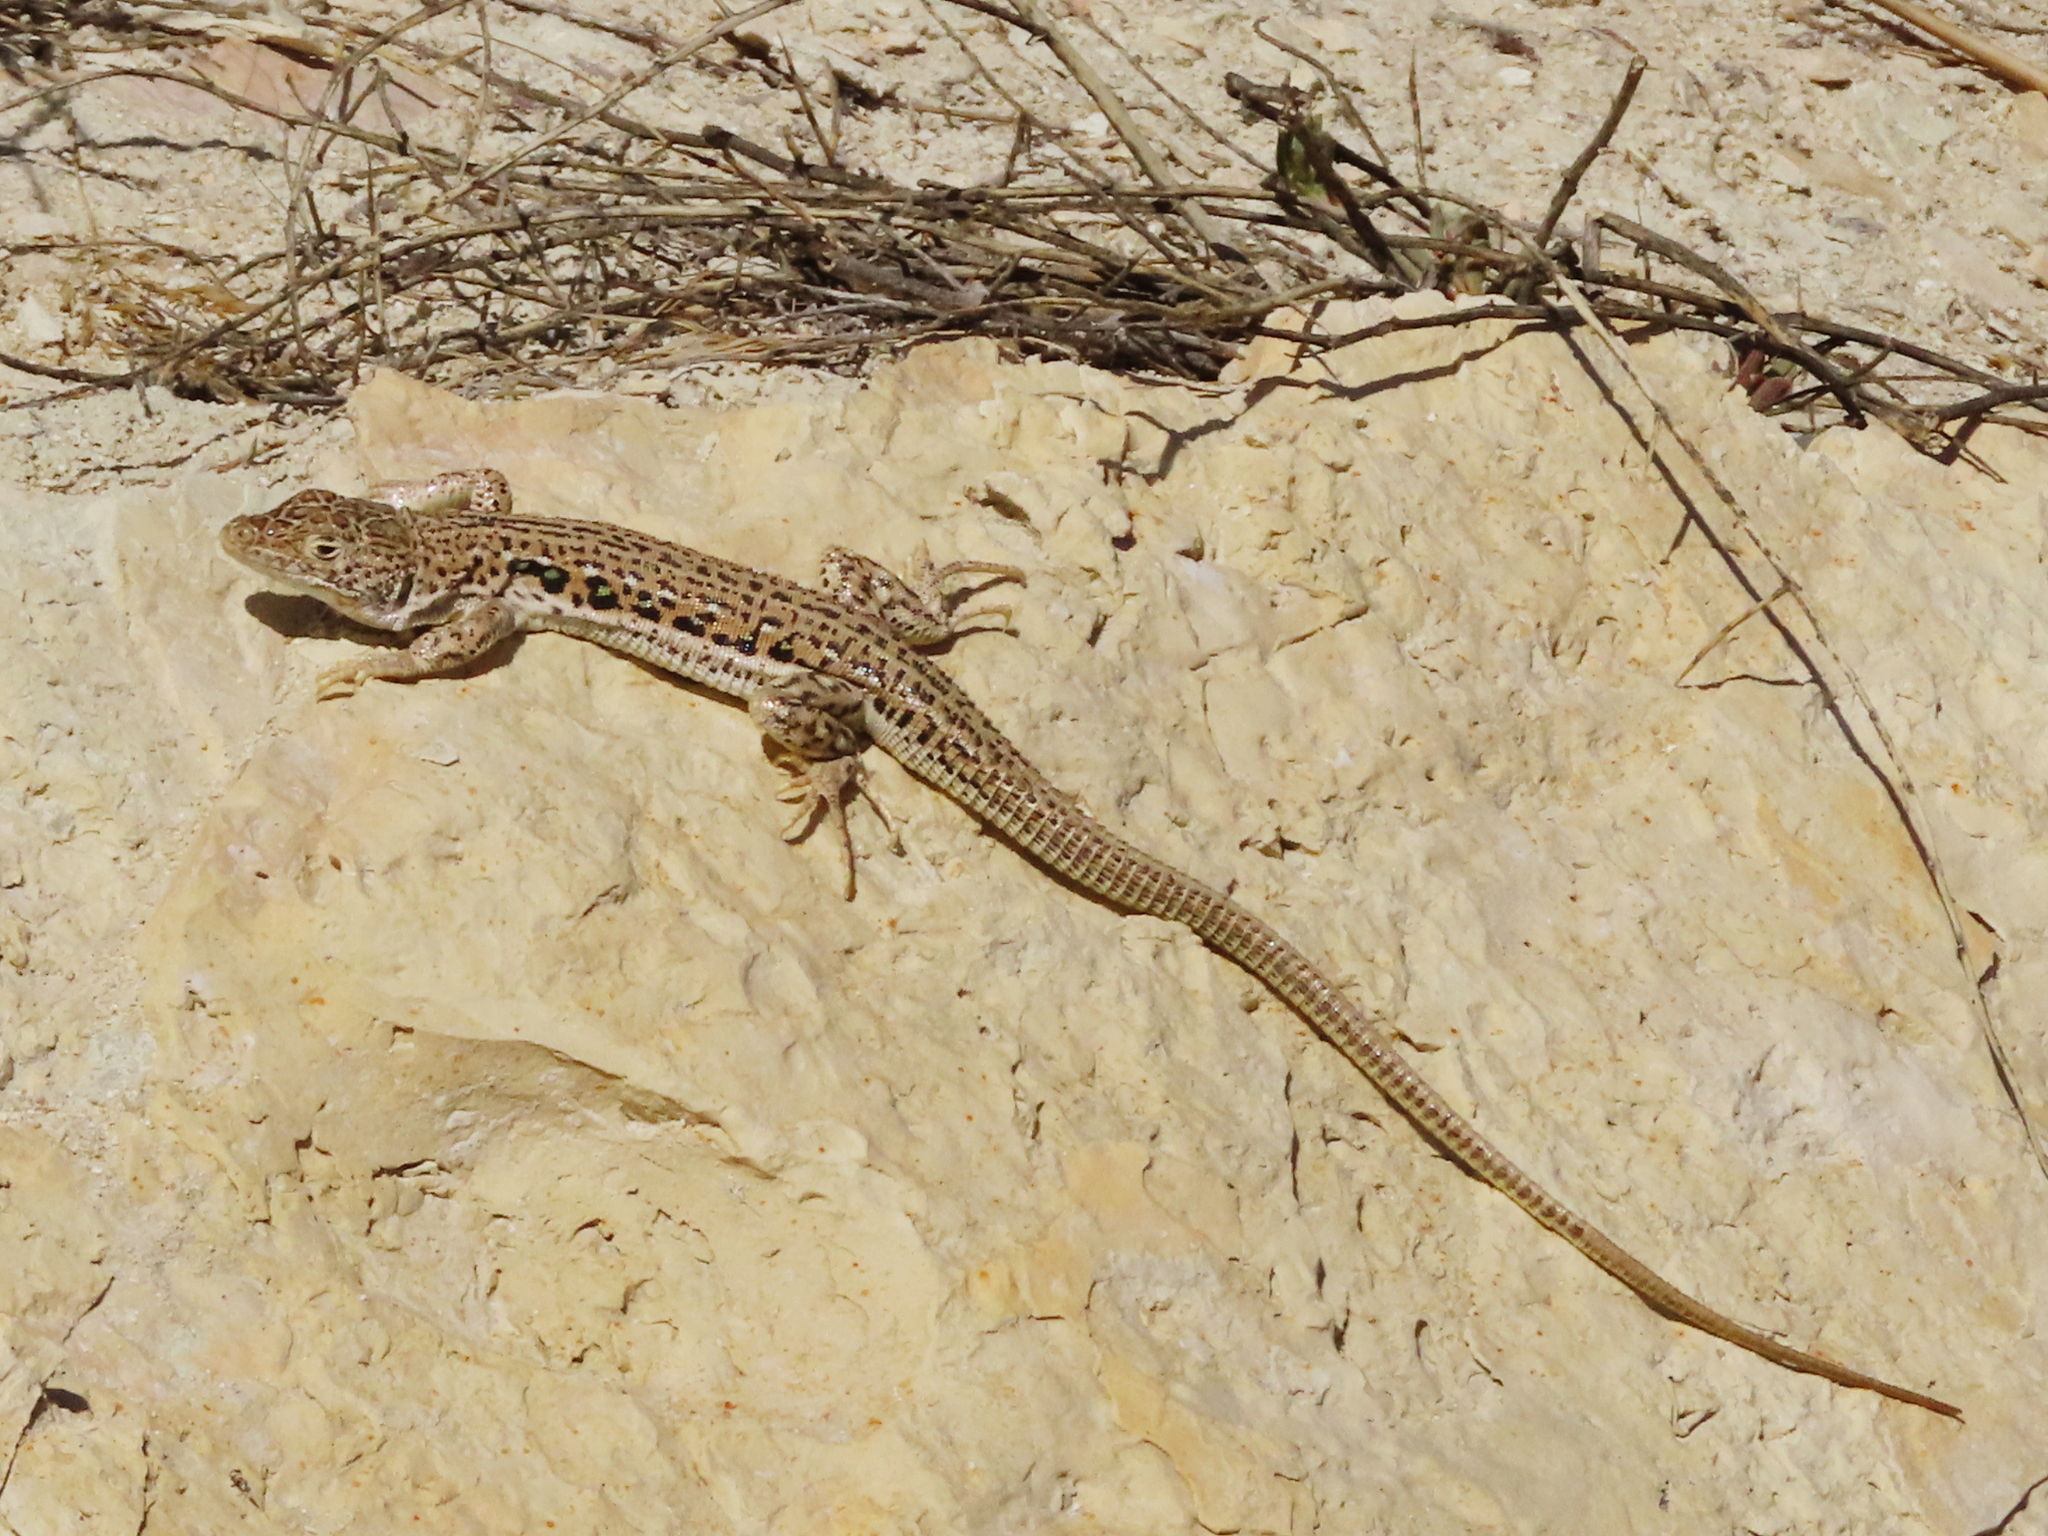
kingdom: Animalia
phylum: Chordata
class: Squamata
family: Lacertidae
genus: Eremias
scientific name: Eremias velox
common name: Central asian racerunner
